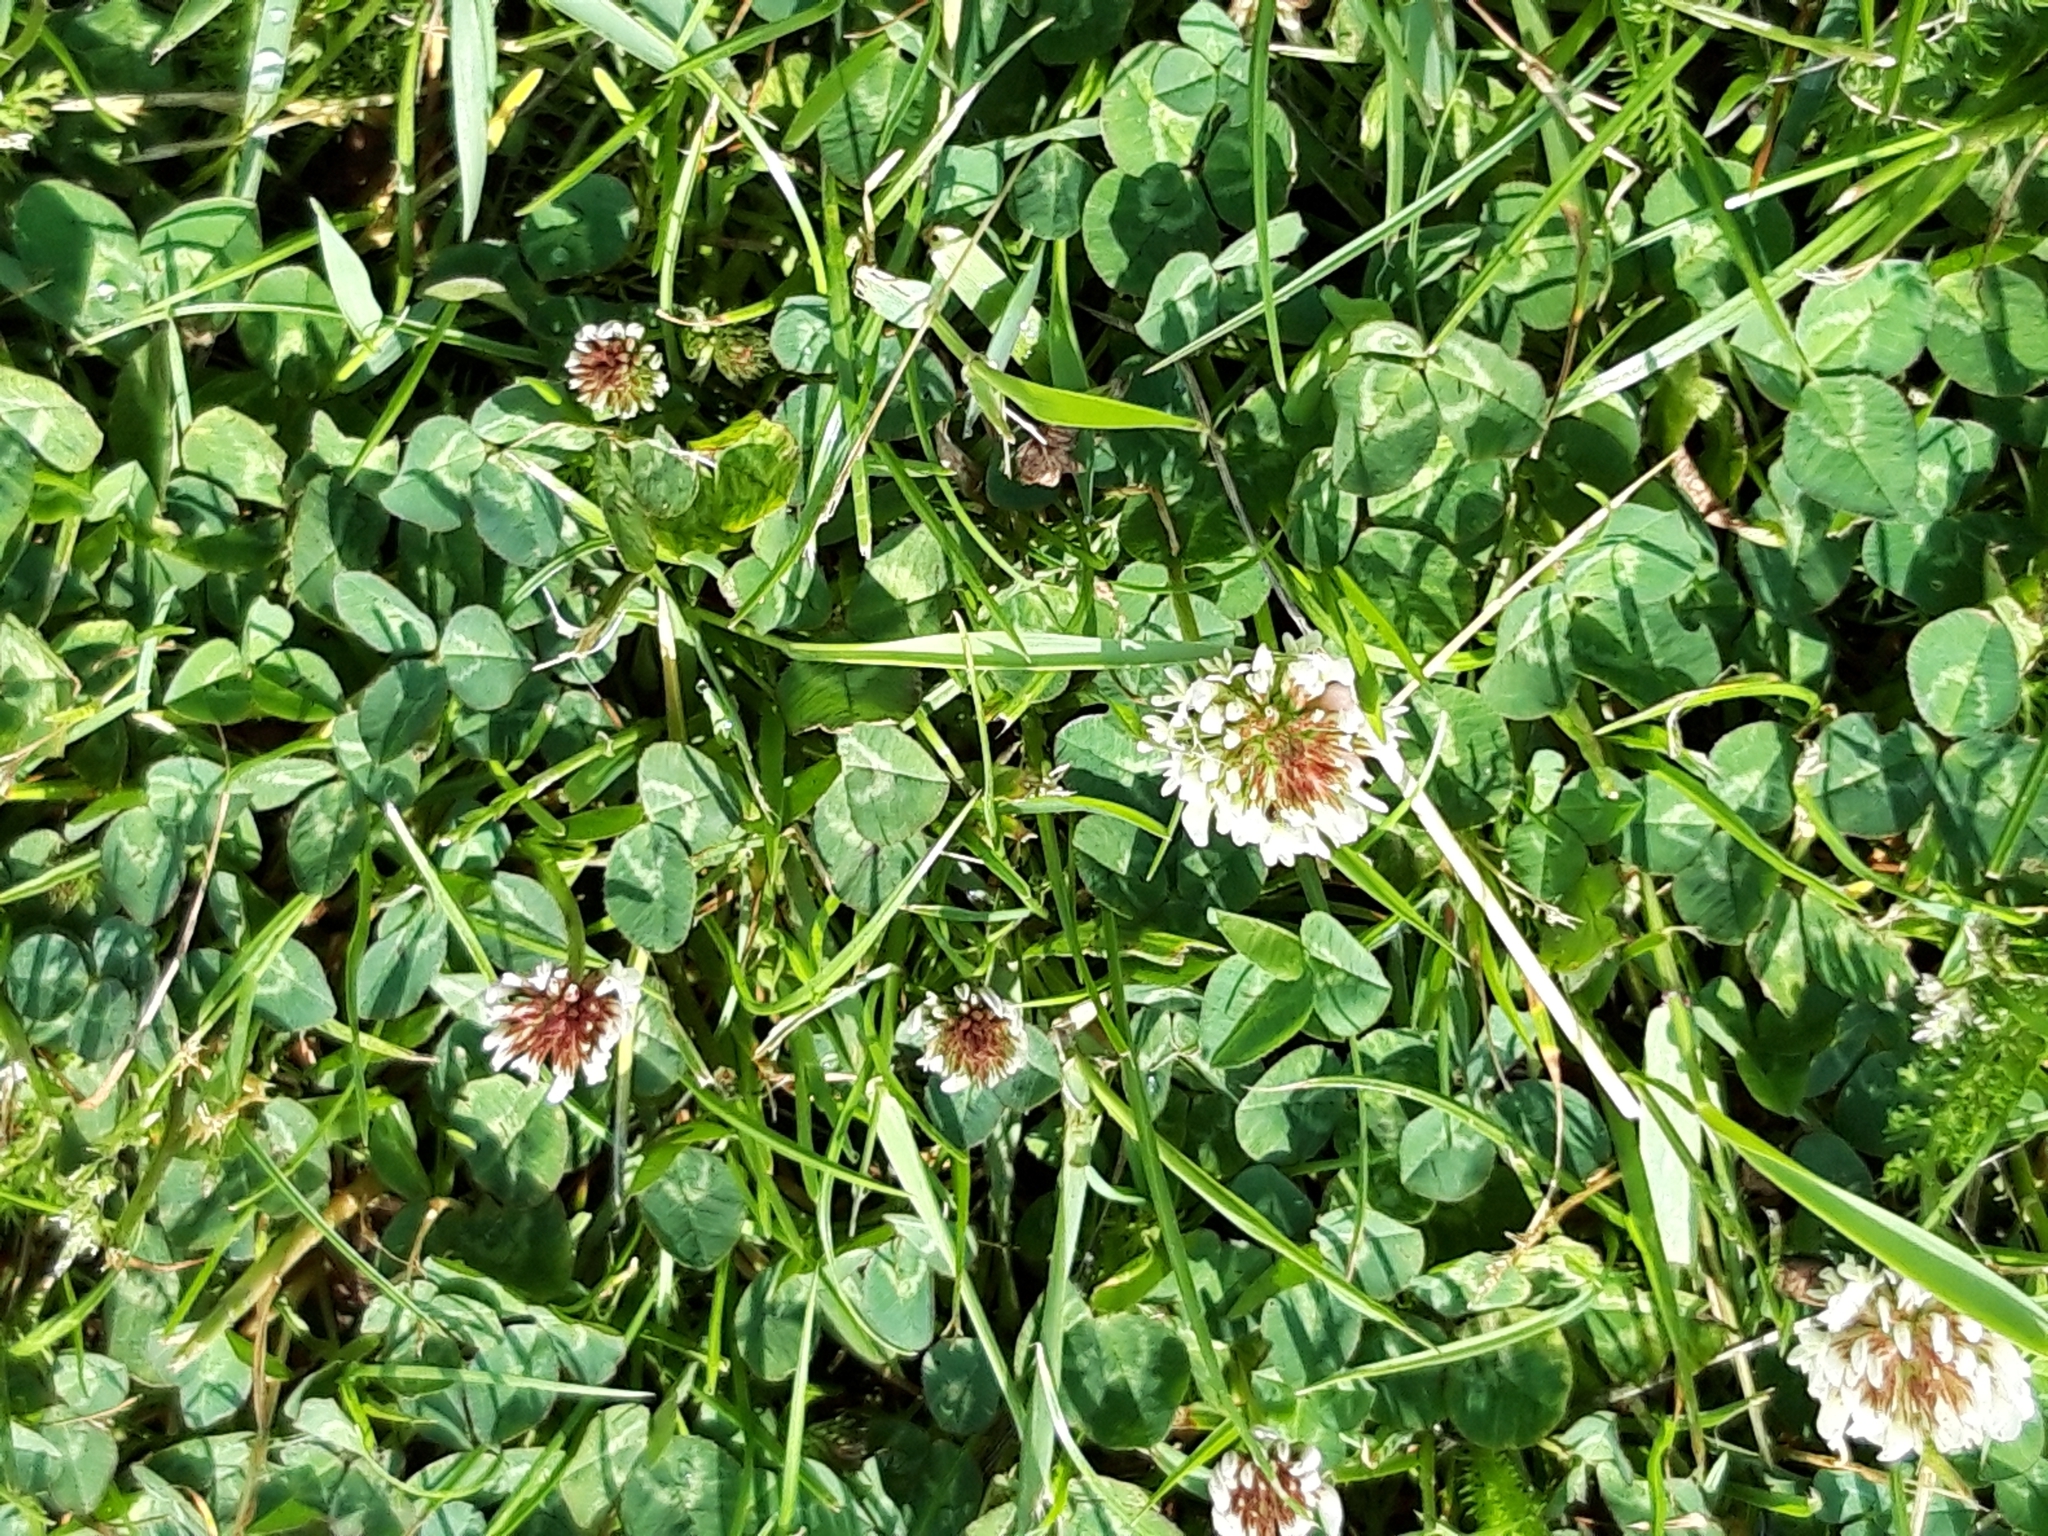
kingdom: Plantae
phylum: Tracheophyta
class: Magnoliopsida
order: Fabales
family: Fabaceae
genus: Trifolium
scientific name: Trifolium repens
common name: White clover
